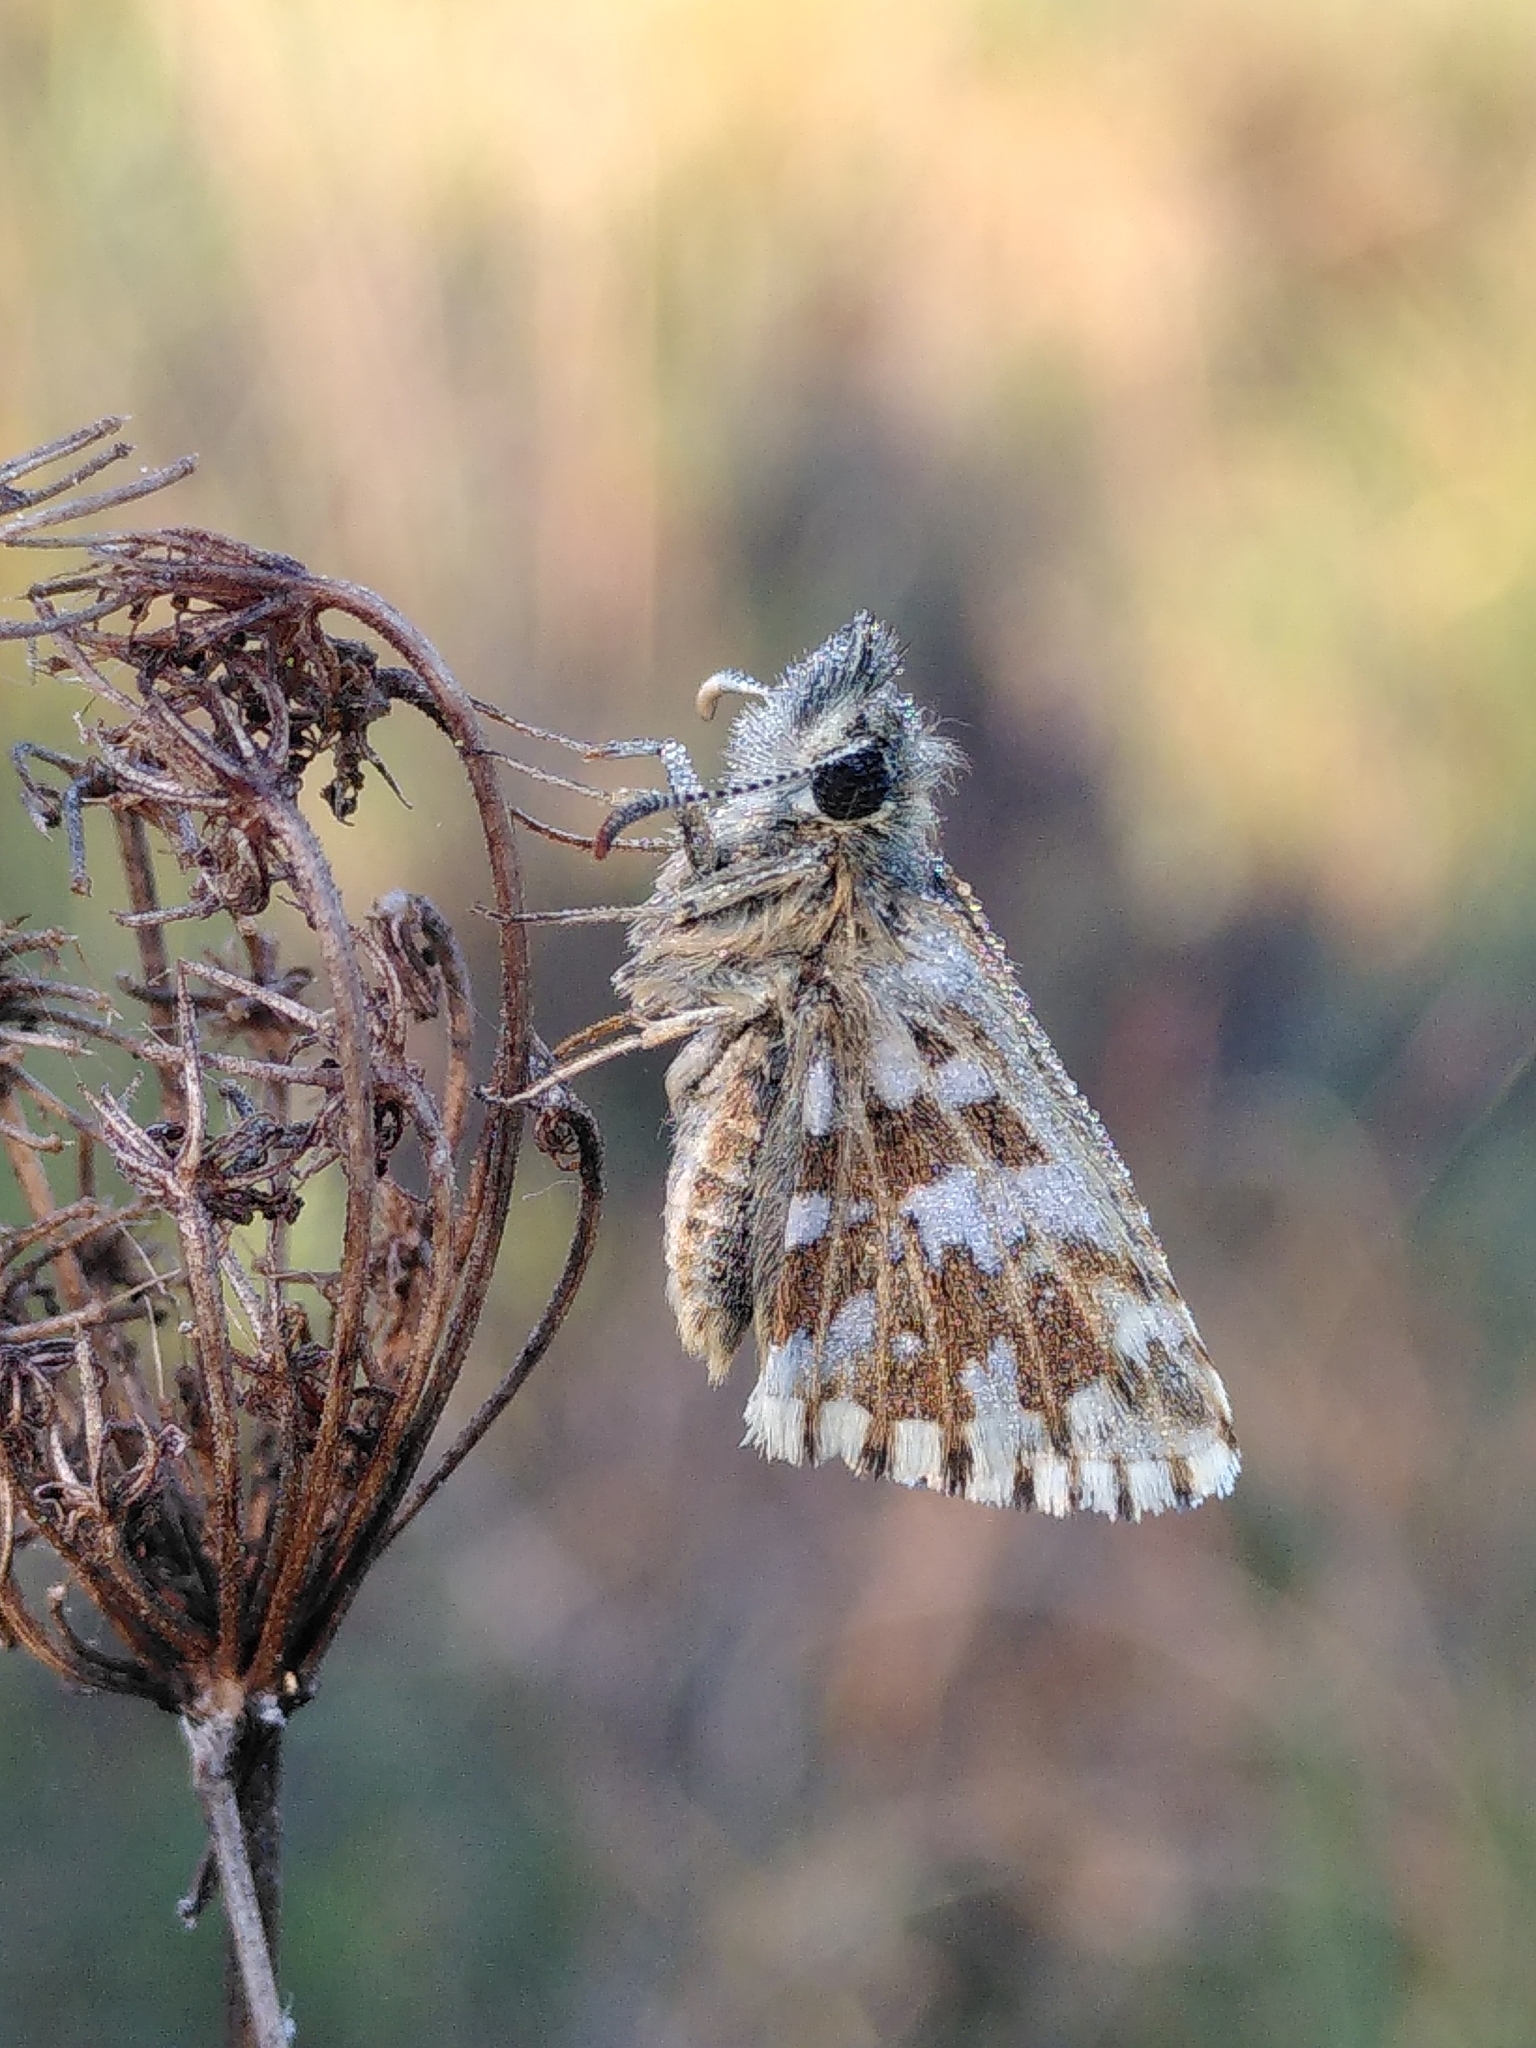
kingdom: Animalia
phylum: Arthropoda
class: Insecta
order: Lepidoptera
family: Hesperiidae
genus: Pyrgus
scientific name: Pyrgus malvoides
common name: Southern grizzled skipper
